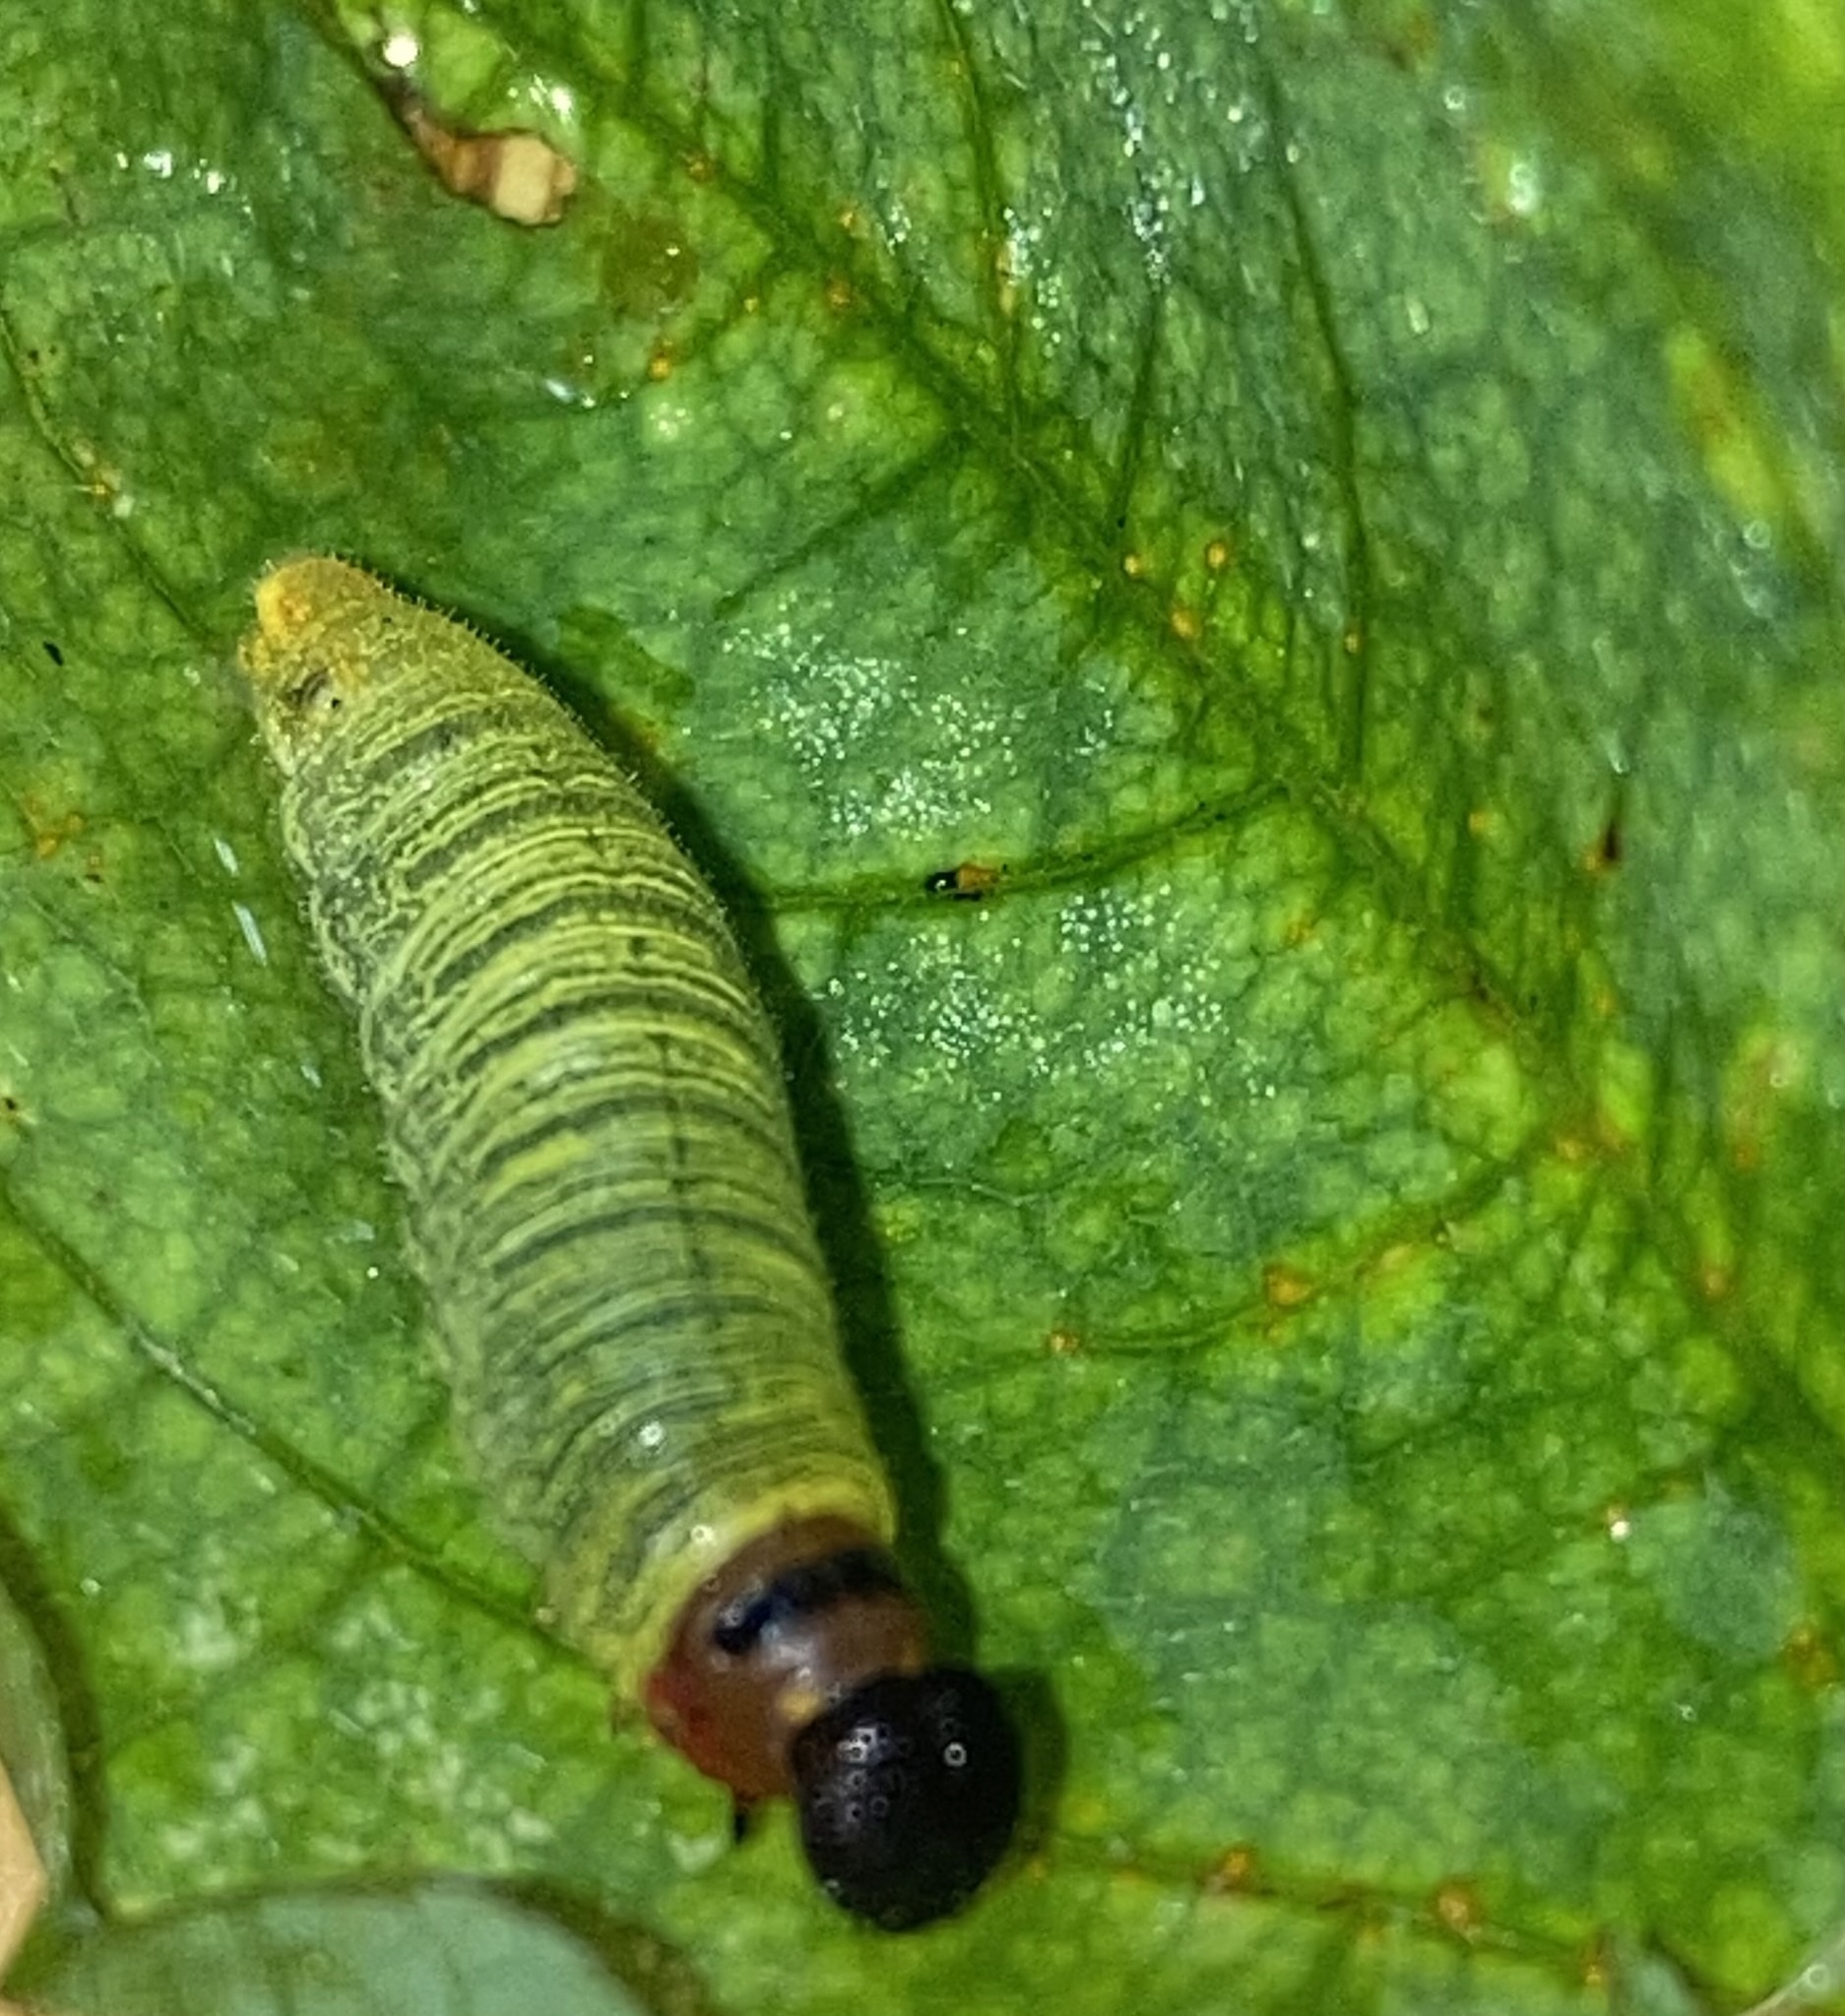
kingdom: Animalia
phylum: Arthropoda
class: Insecta
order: Lepidoptera
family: Hesperiidae
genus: Epargyreus
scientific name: Epargyreus clarus
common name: Silver-spotted skipper
